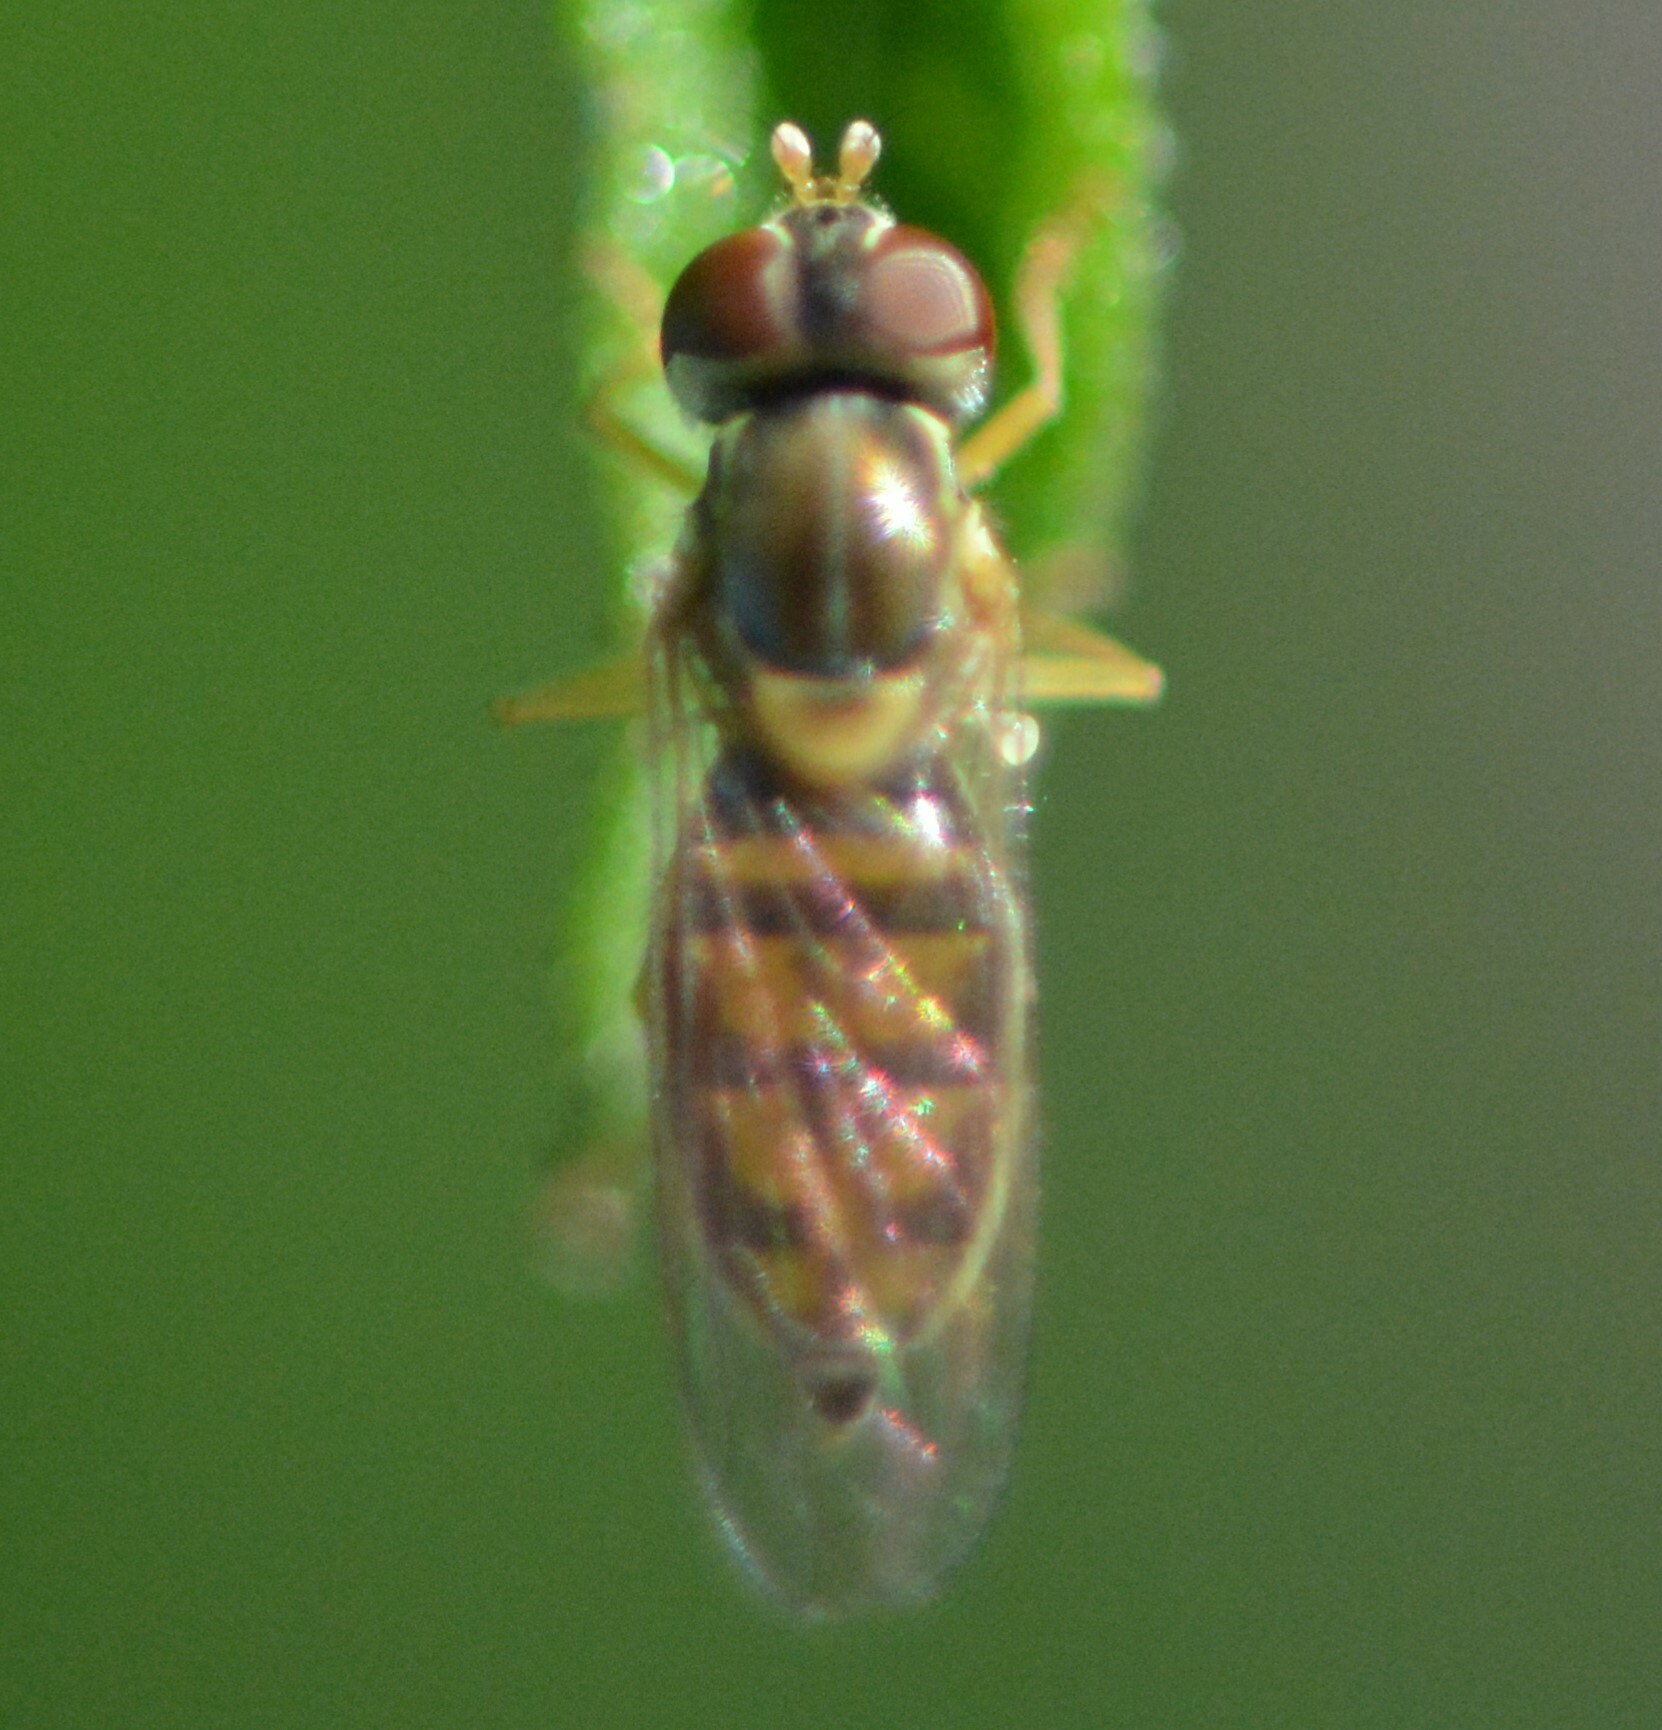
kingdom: Animalia
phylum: Arthropoda
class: Insecta
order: Diptera
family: Syrphidae
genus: Toxomerus
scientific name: Toxomerus marginatus
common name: Syrphid fly
